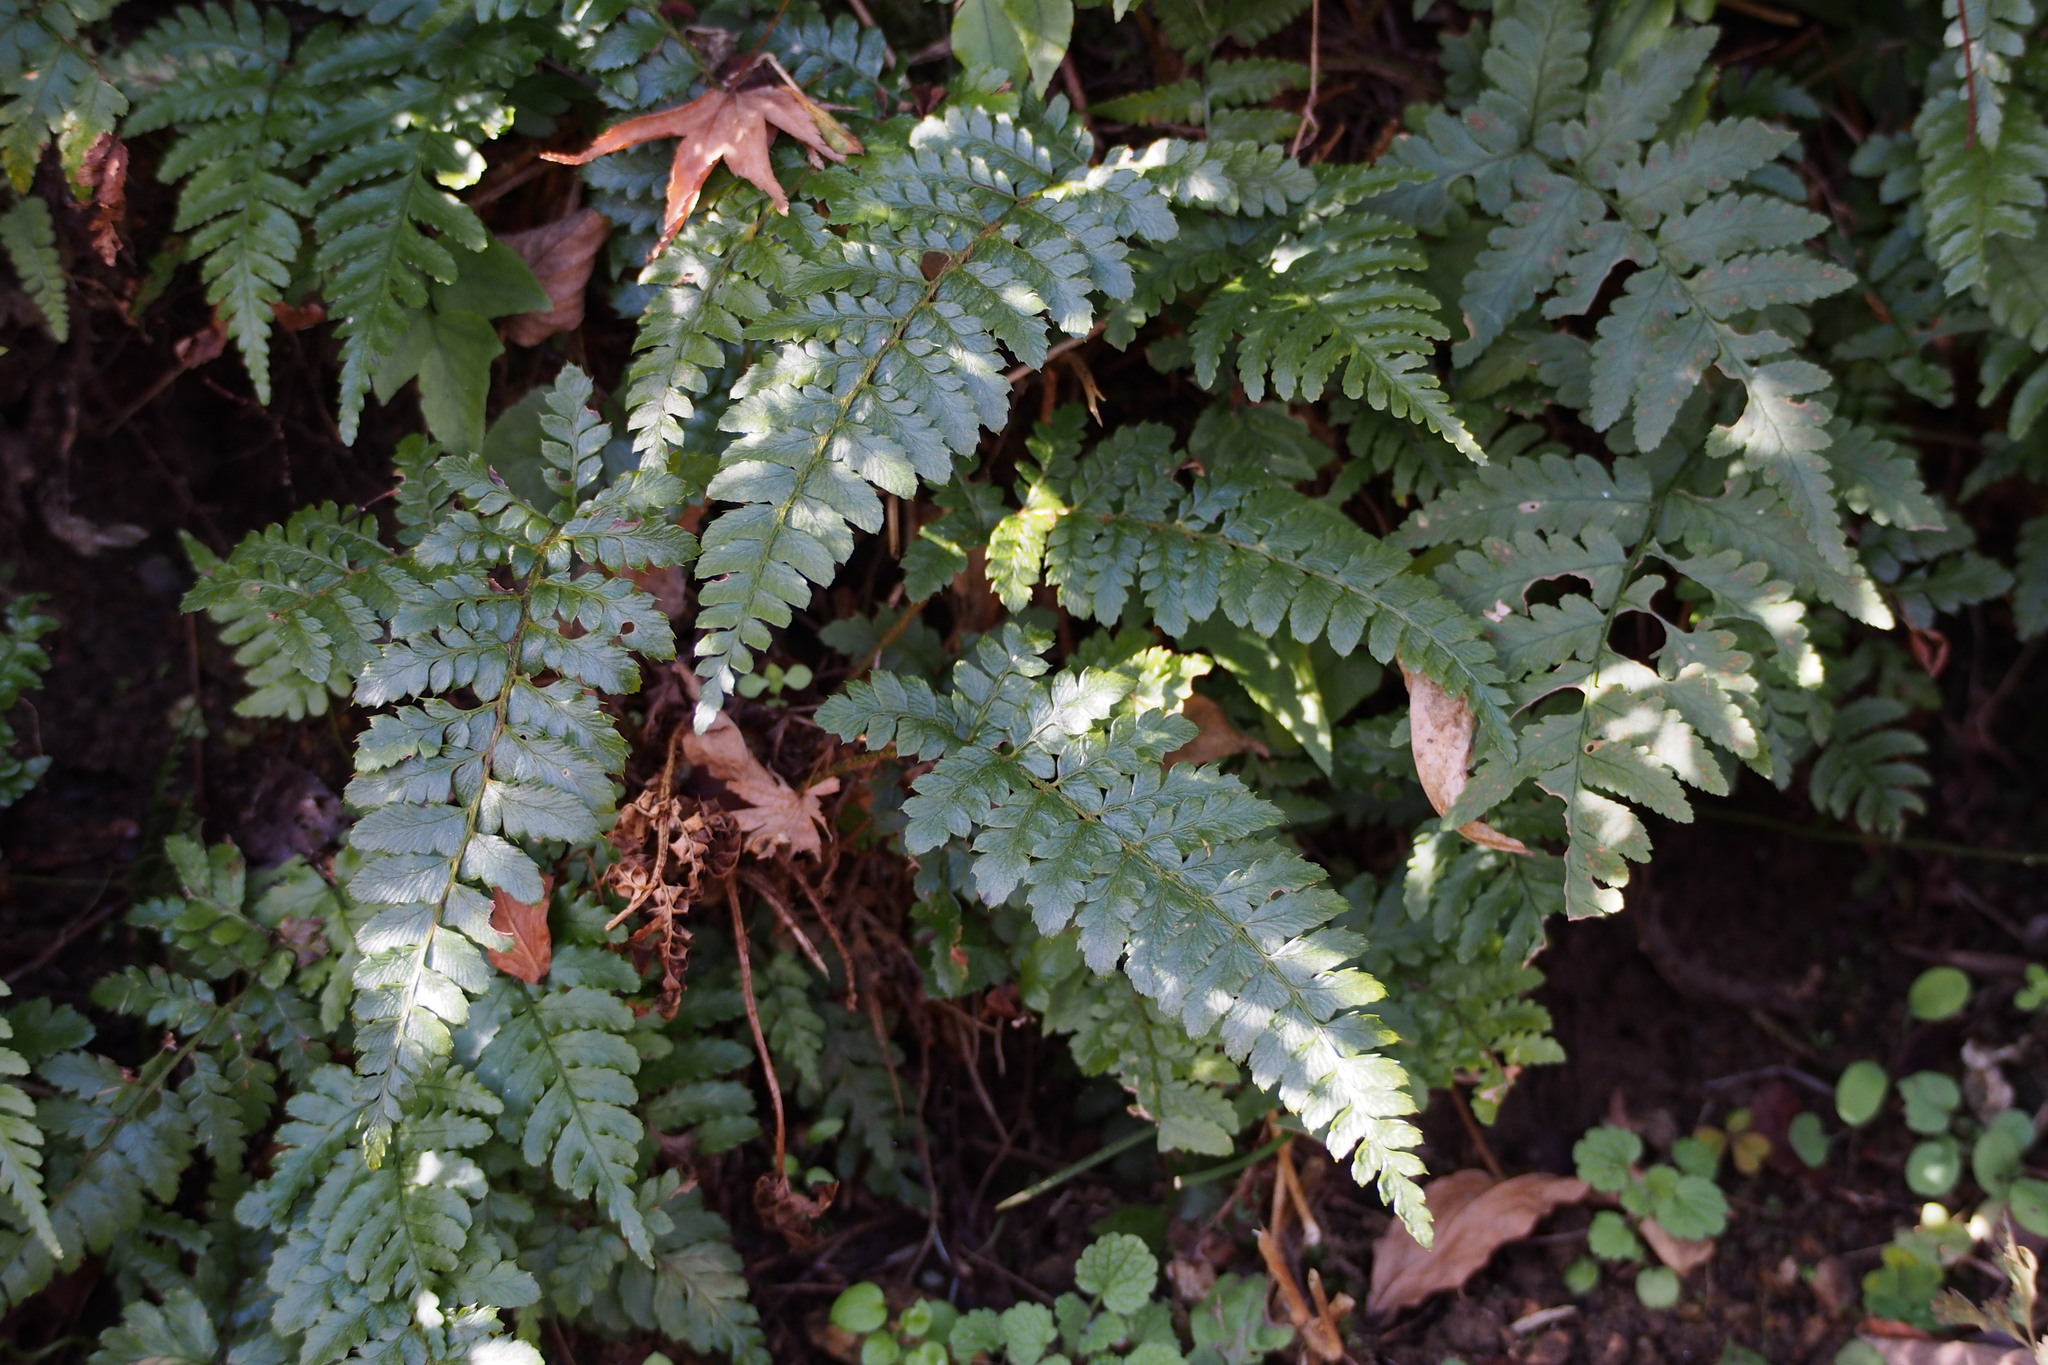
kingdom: Plantae
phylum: Tracheophyta
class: Polypodiopsida
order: Polypodiales
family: Dryopteridaceae
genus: Polystichum
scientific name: Polystichum luctuosum
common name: Korean rockfern
